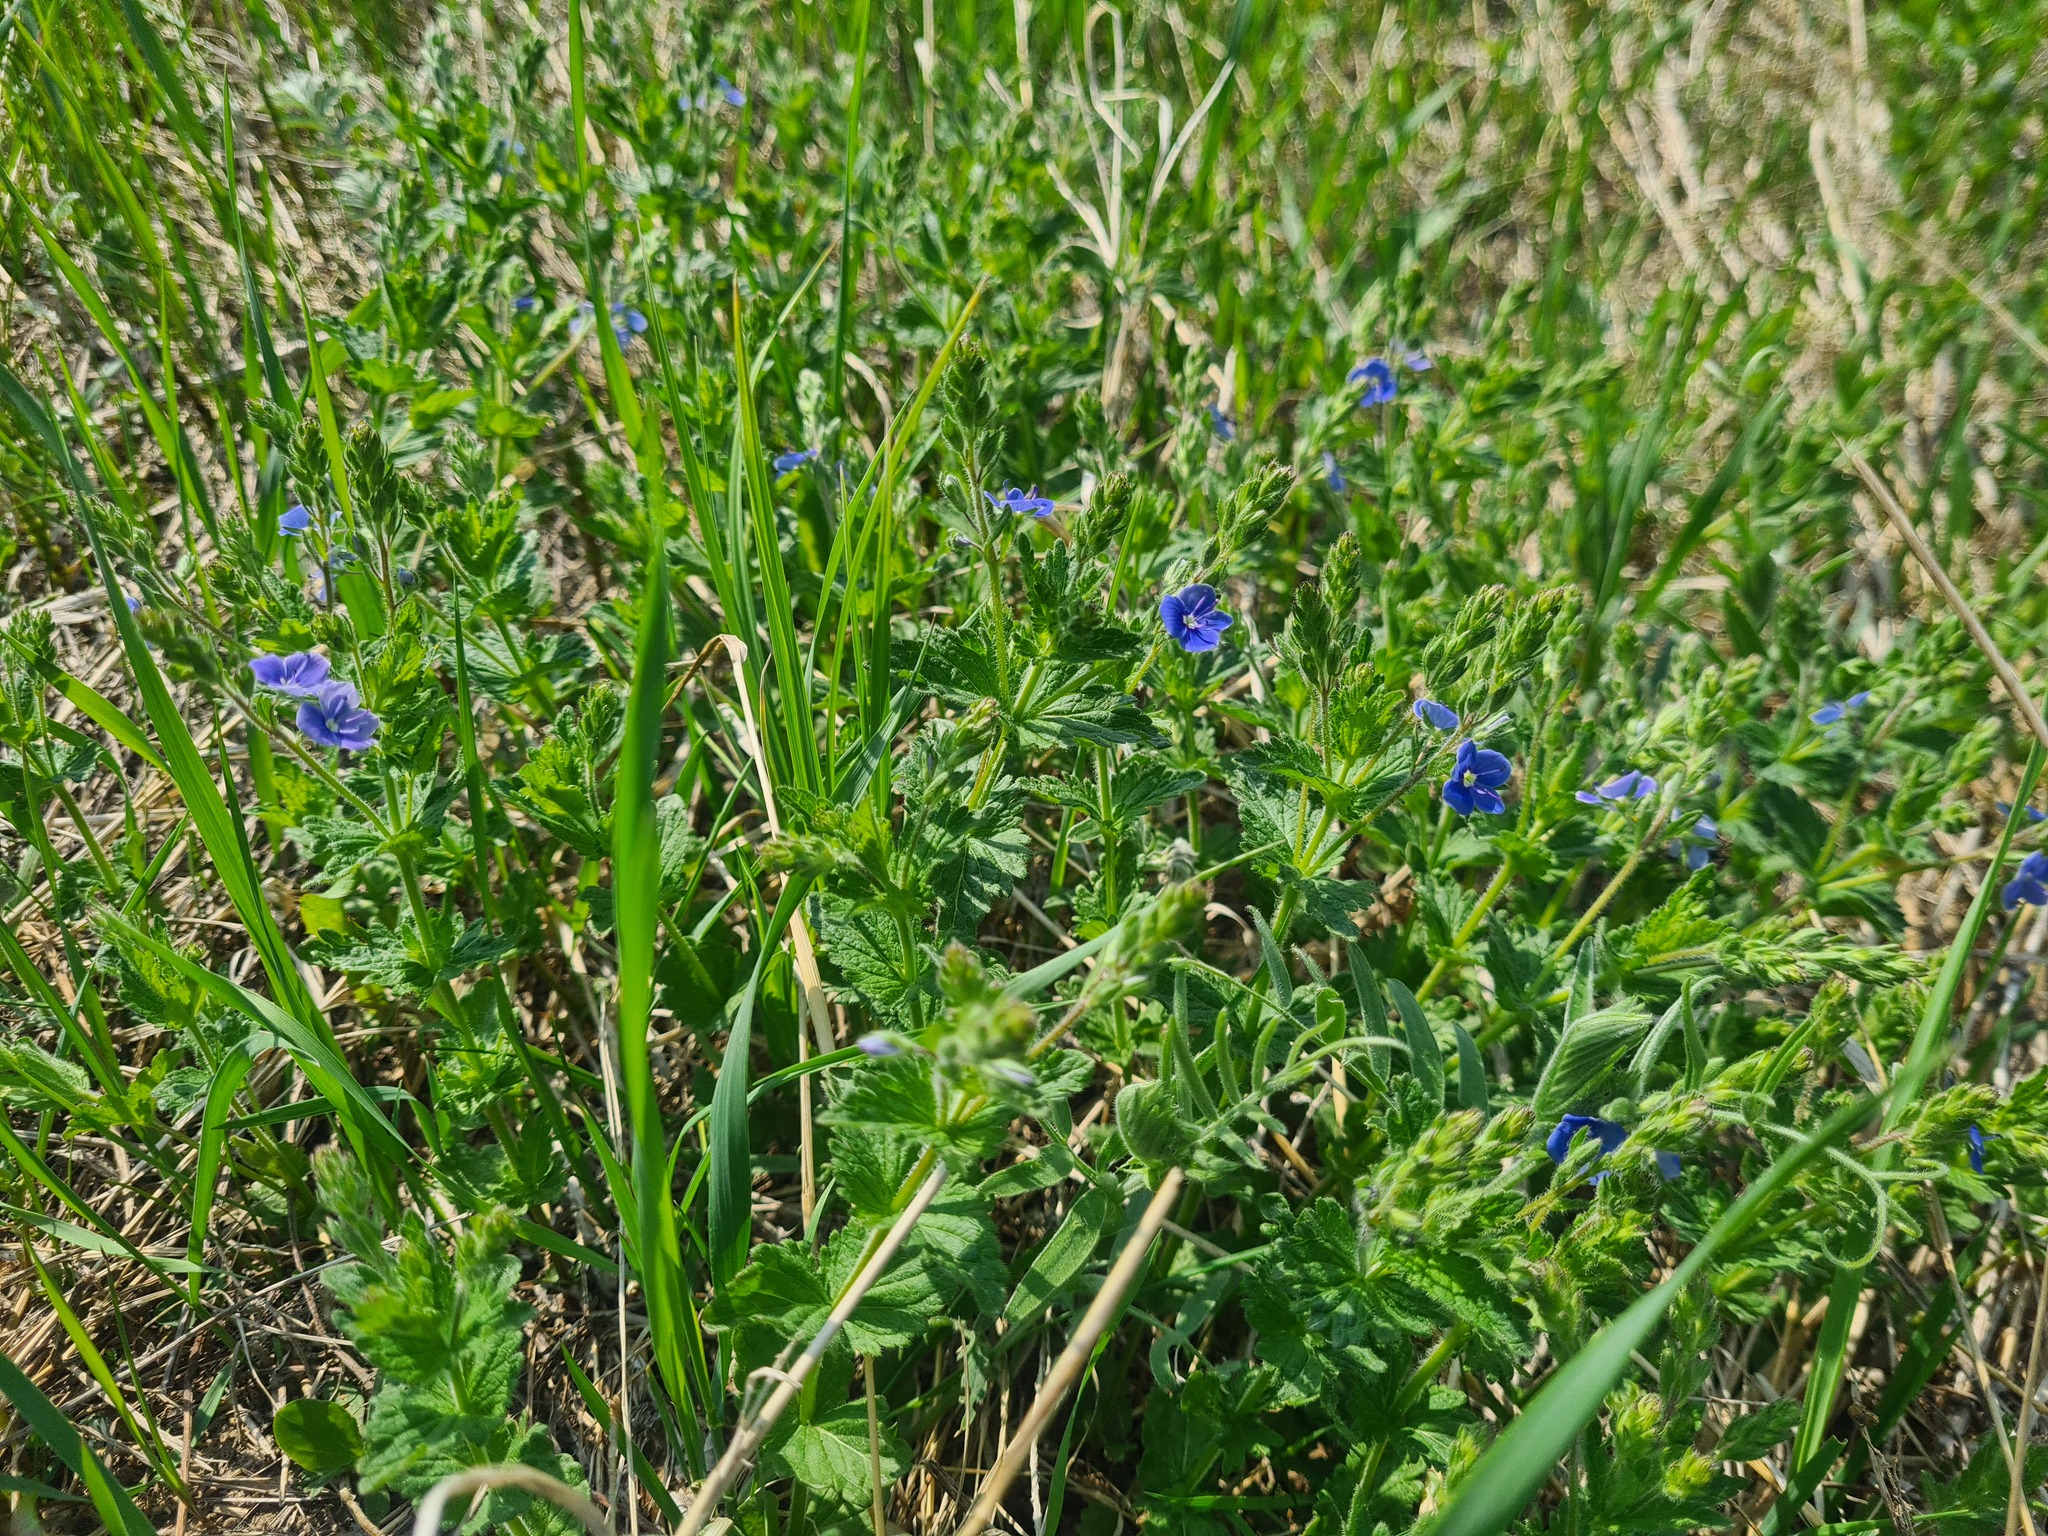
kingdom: Plantae
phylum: Tracheophyta
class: Magnoliopsida
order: Lamiales
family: Plantaginaceae
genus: Veronica
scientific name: Veronica chamaedrys
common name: Germander speedwell
